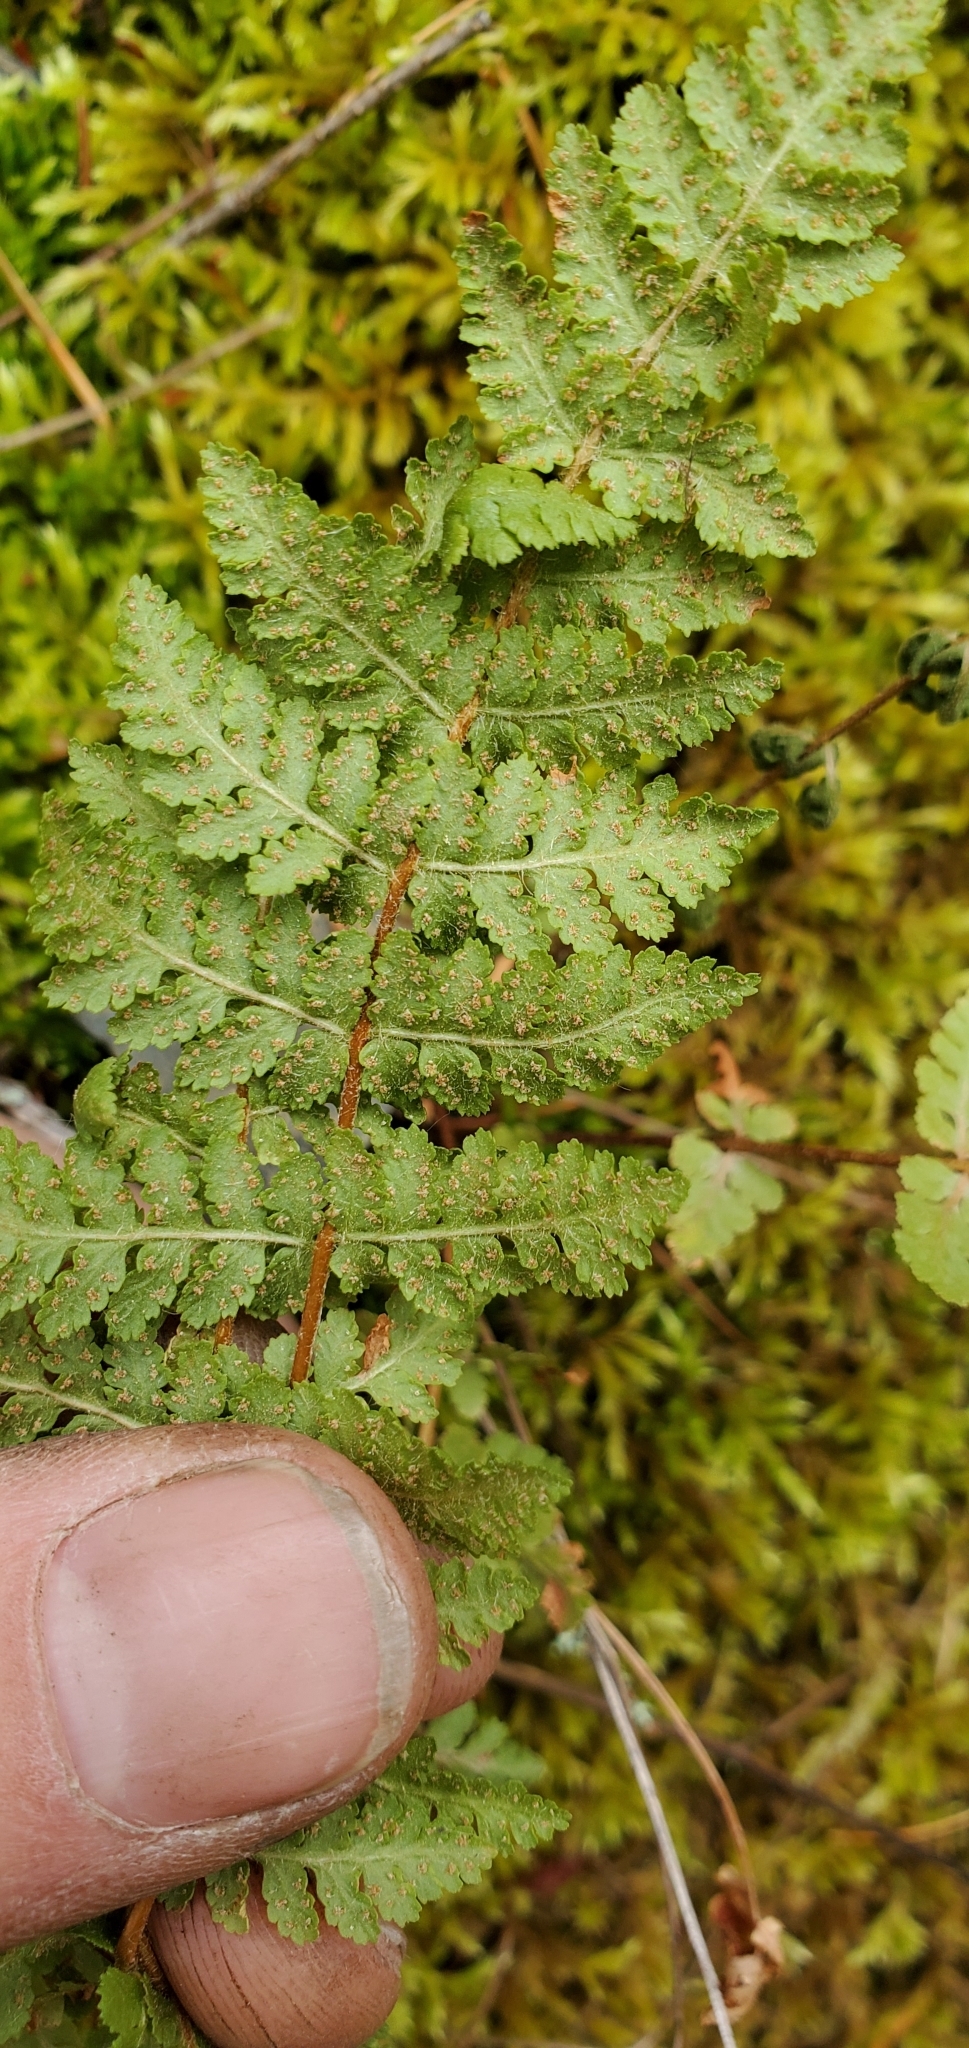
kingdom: Plantae
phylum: Tracheophyta
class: Polypodiopsida
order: Polypodiales
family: Woodsiaceae
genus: Physematium
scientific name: Physematium scopulinum
